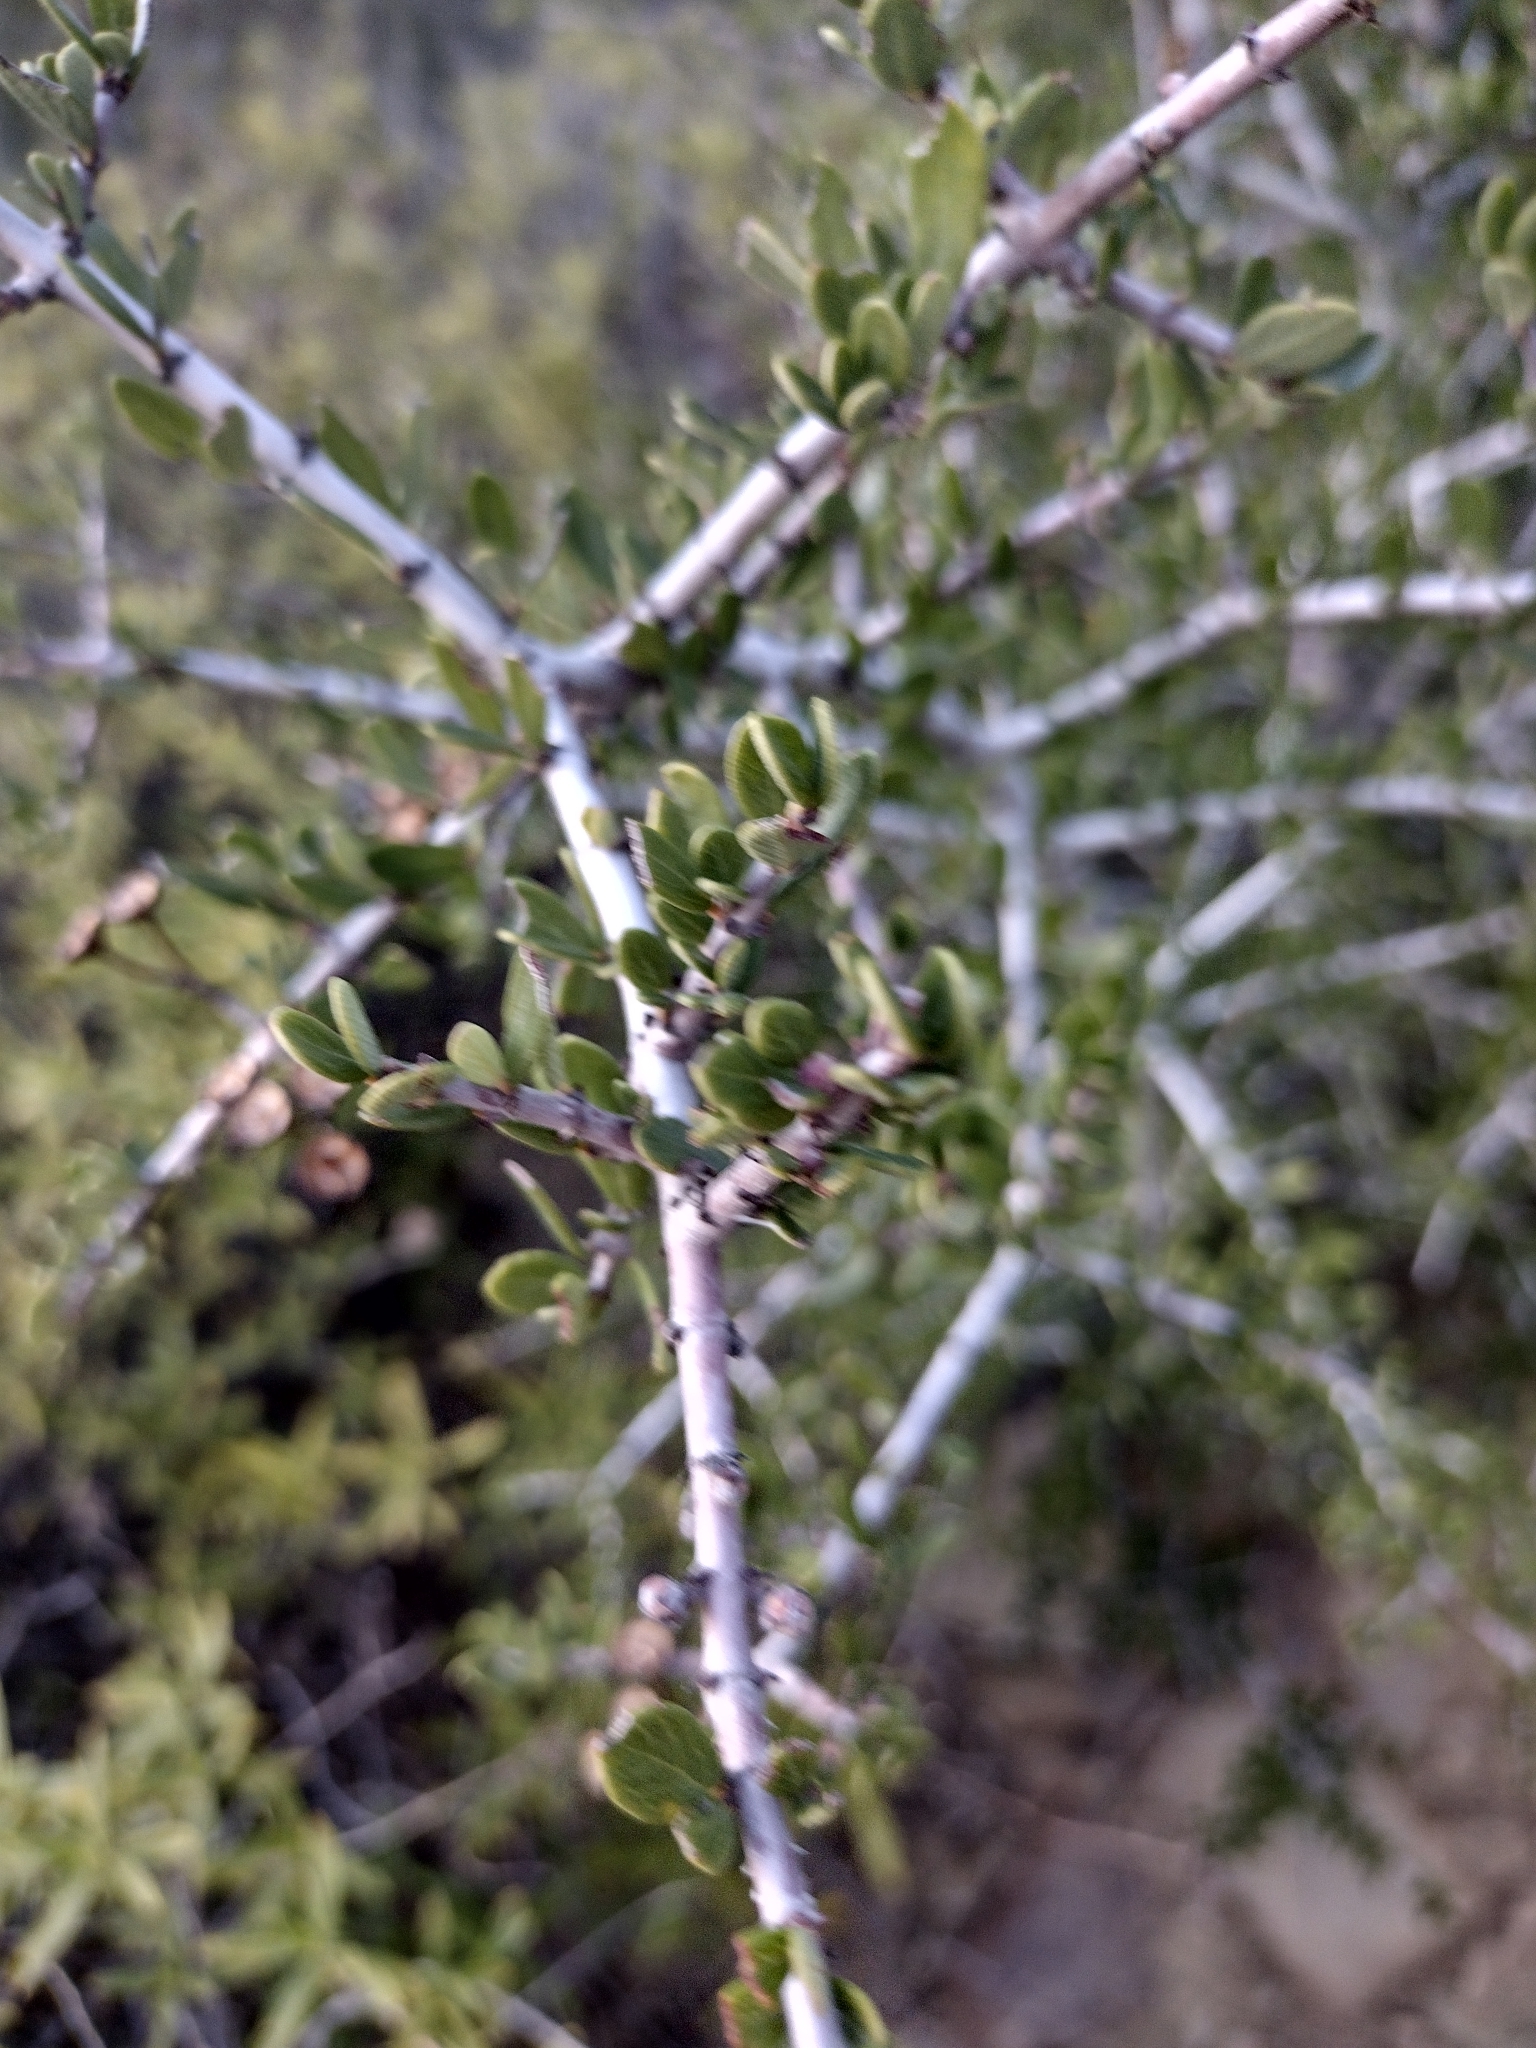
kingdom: Plantae
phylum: Tracheophyta
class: Magnoliopsida
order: Rosales
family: Rhamnaceae
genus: Ceanothus
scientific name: Ceanothus cuneatus
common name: Cuneate ceanothus
